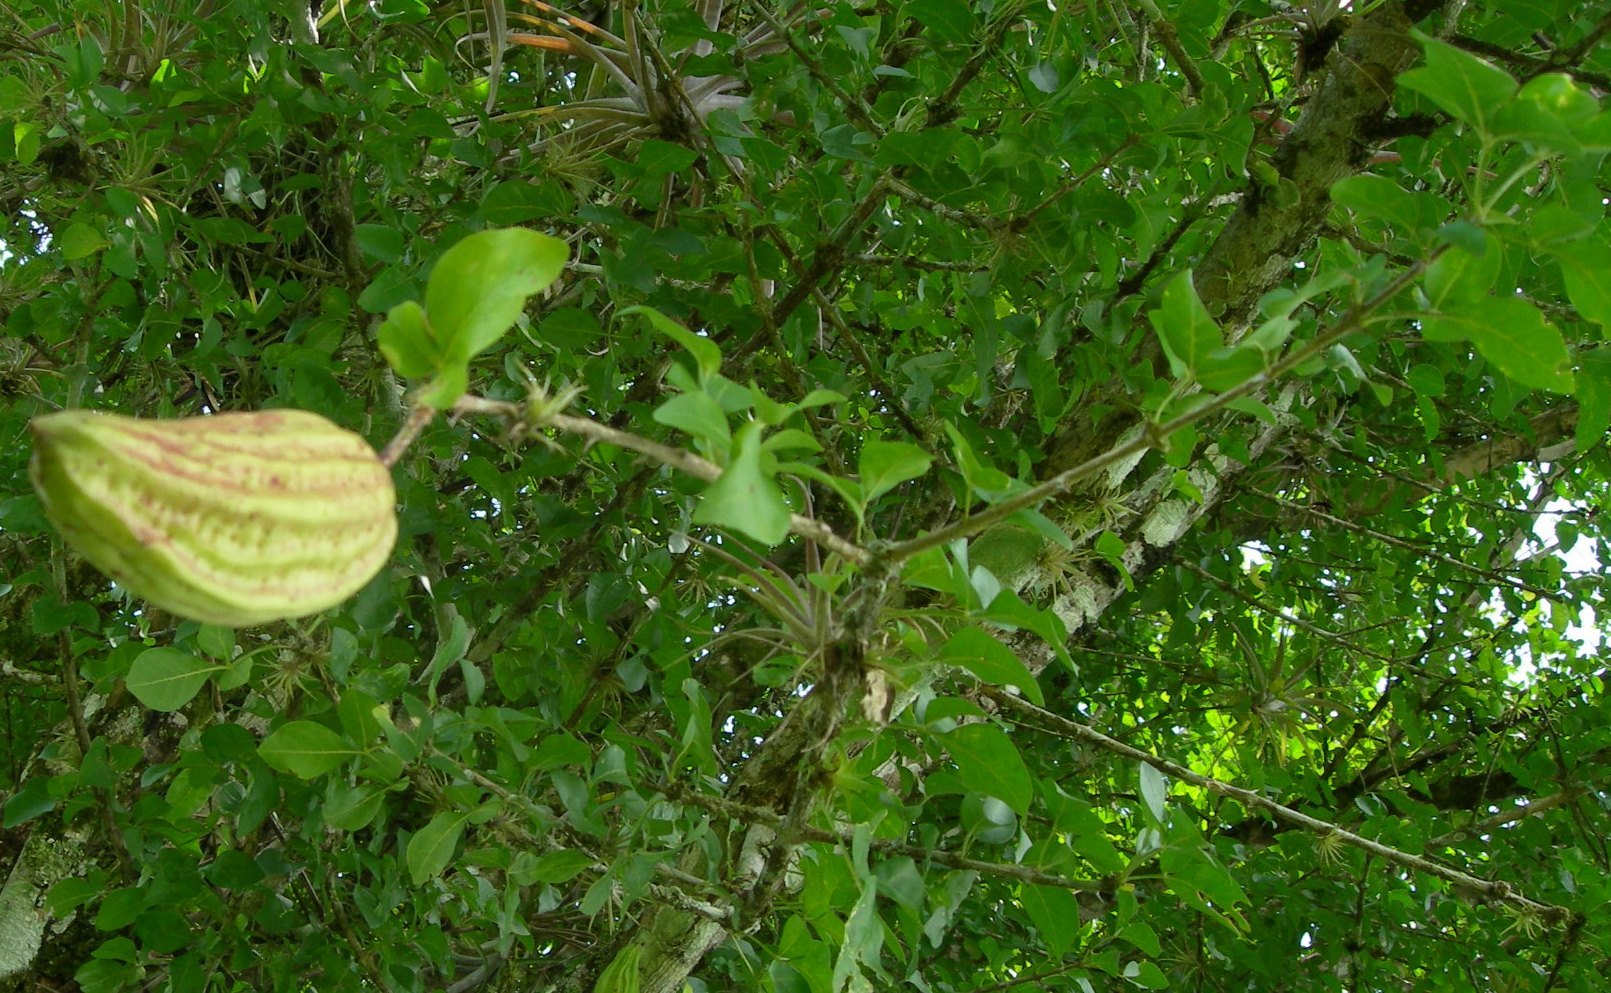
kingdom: Plantae
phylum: Tracheophyta
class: Magnoliopsida
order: Lamiales
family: Bignoniaceae
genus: Parmentiera
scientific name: Parmentiera aculeata
